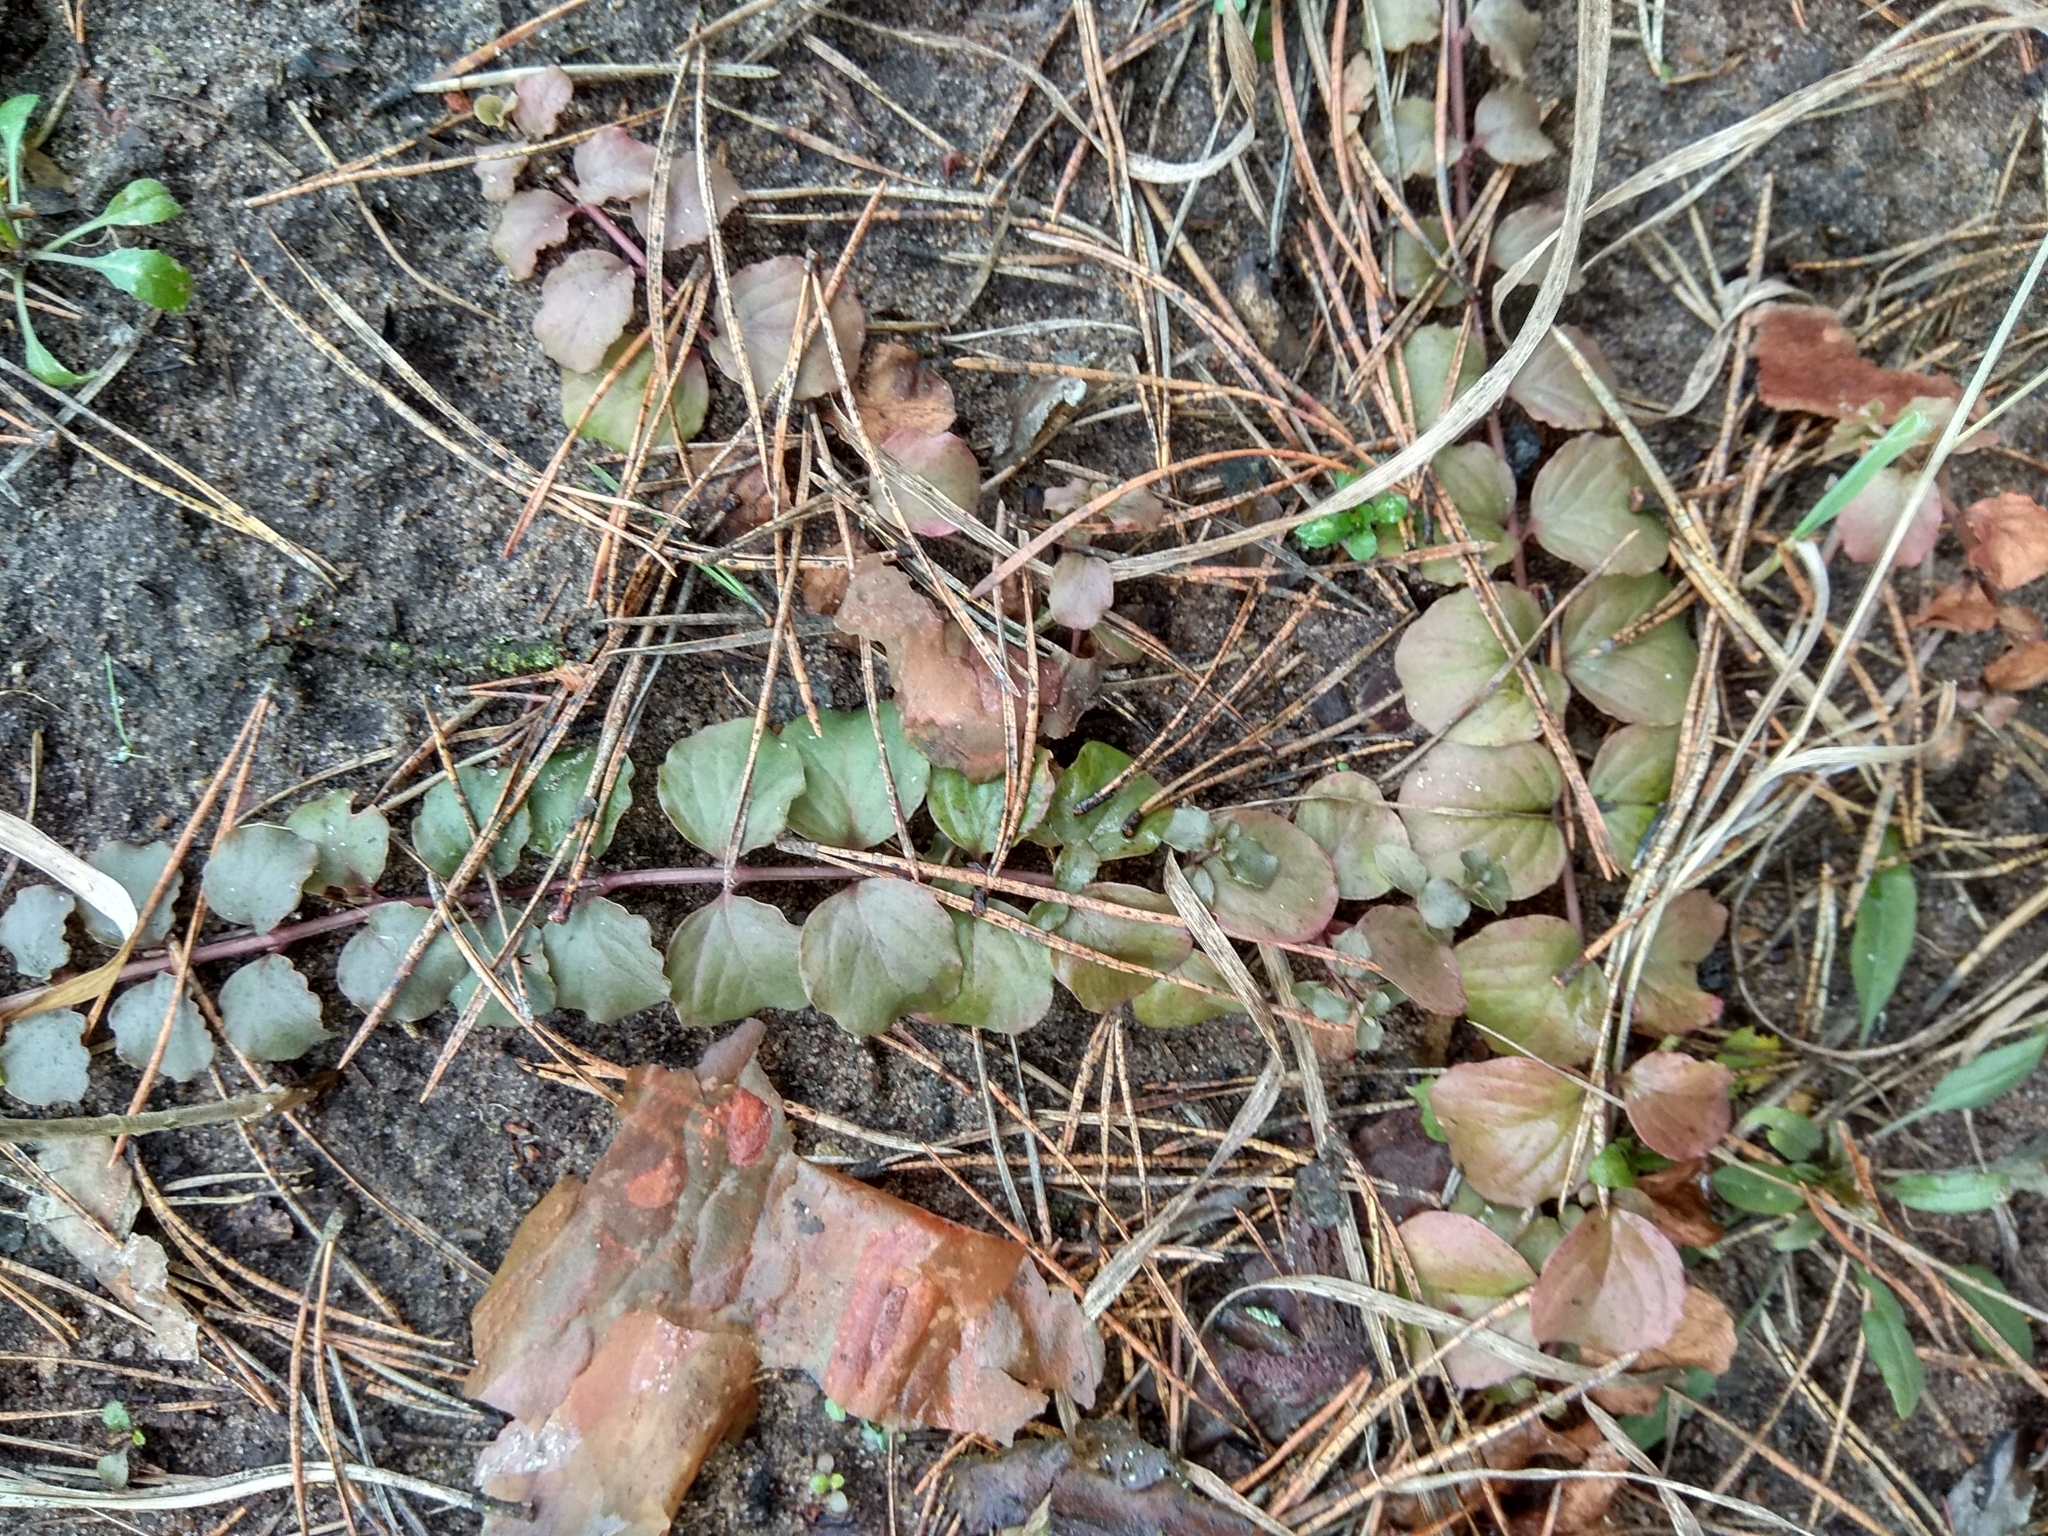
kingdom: Plantae
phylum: Tracheophyta
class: Magnoliopsida
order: Ericales
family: Primulaceae
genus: Lysimachia
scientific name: Lysimachia nummularia
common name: Moneywort
